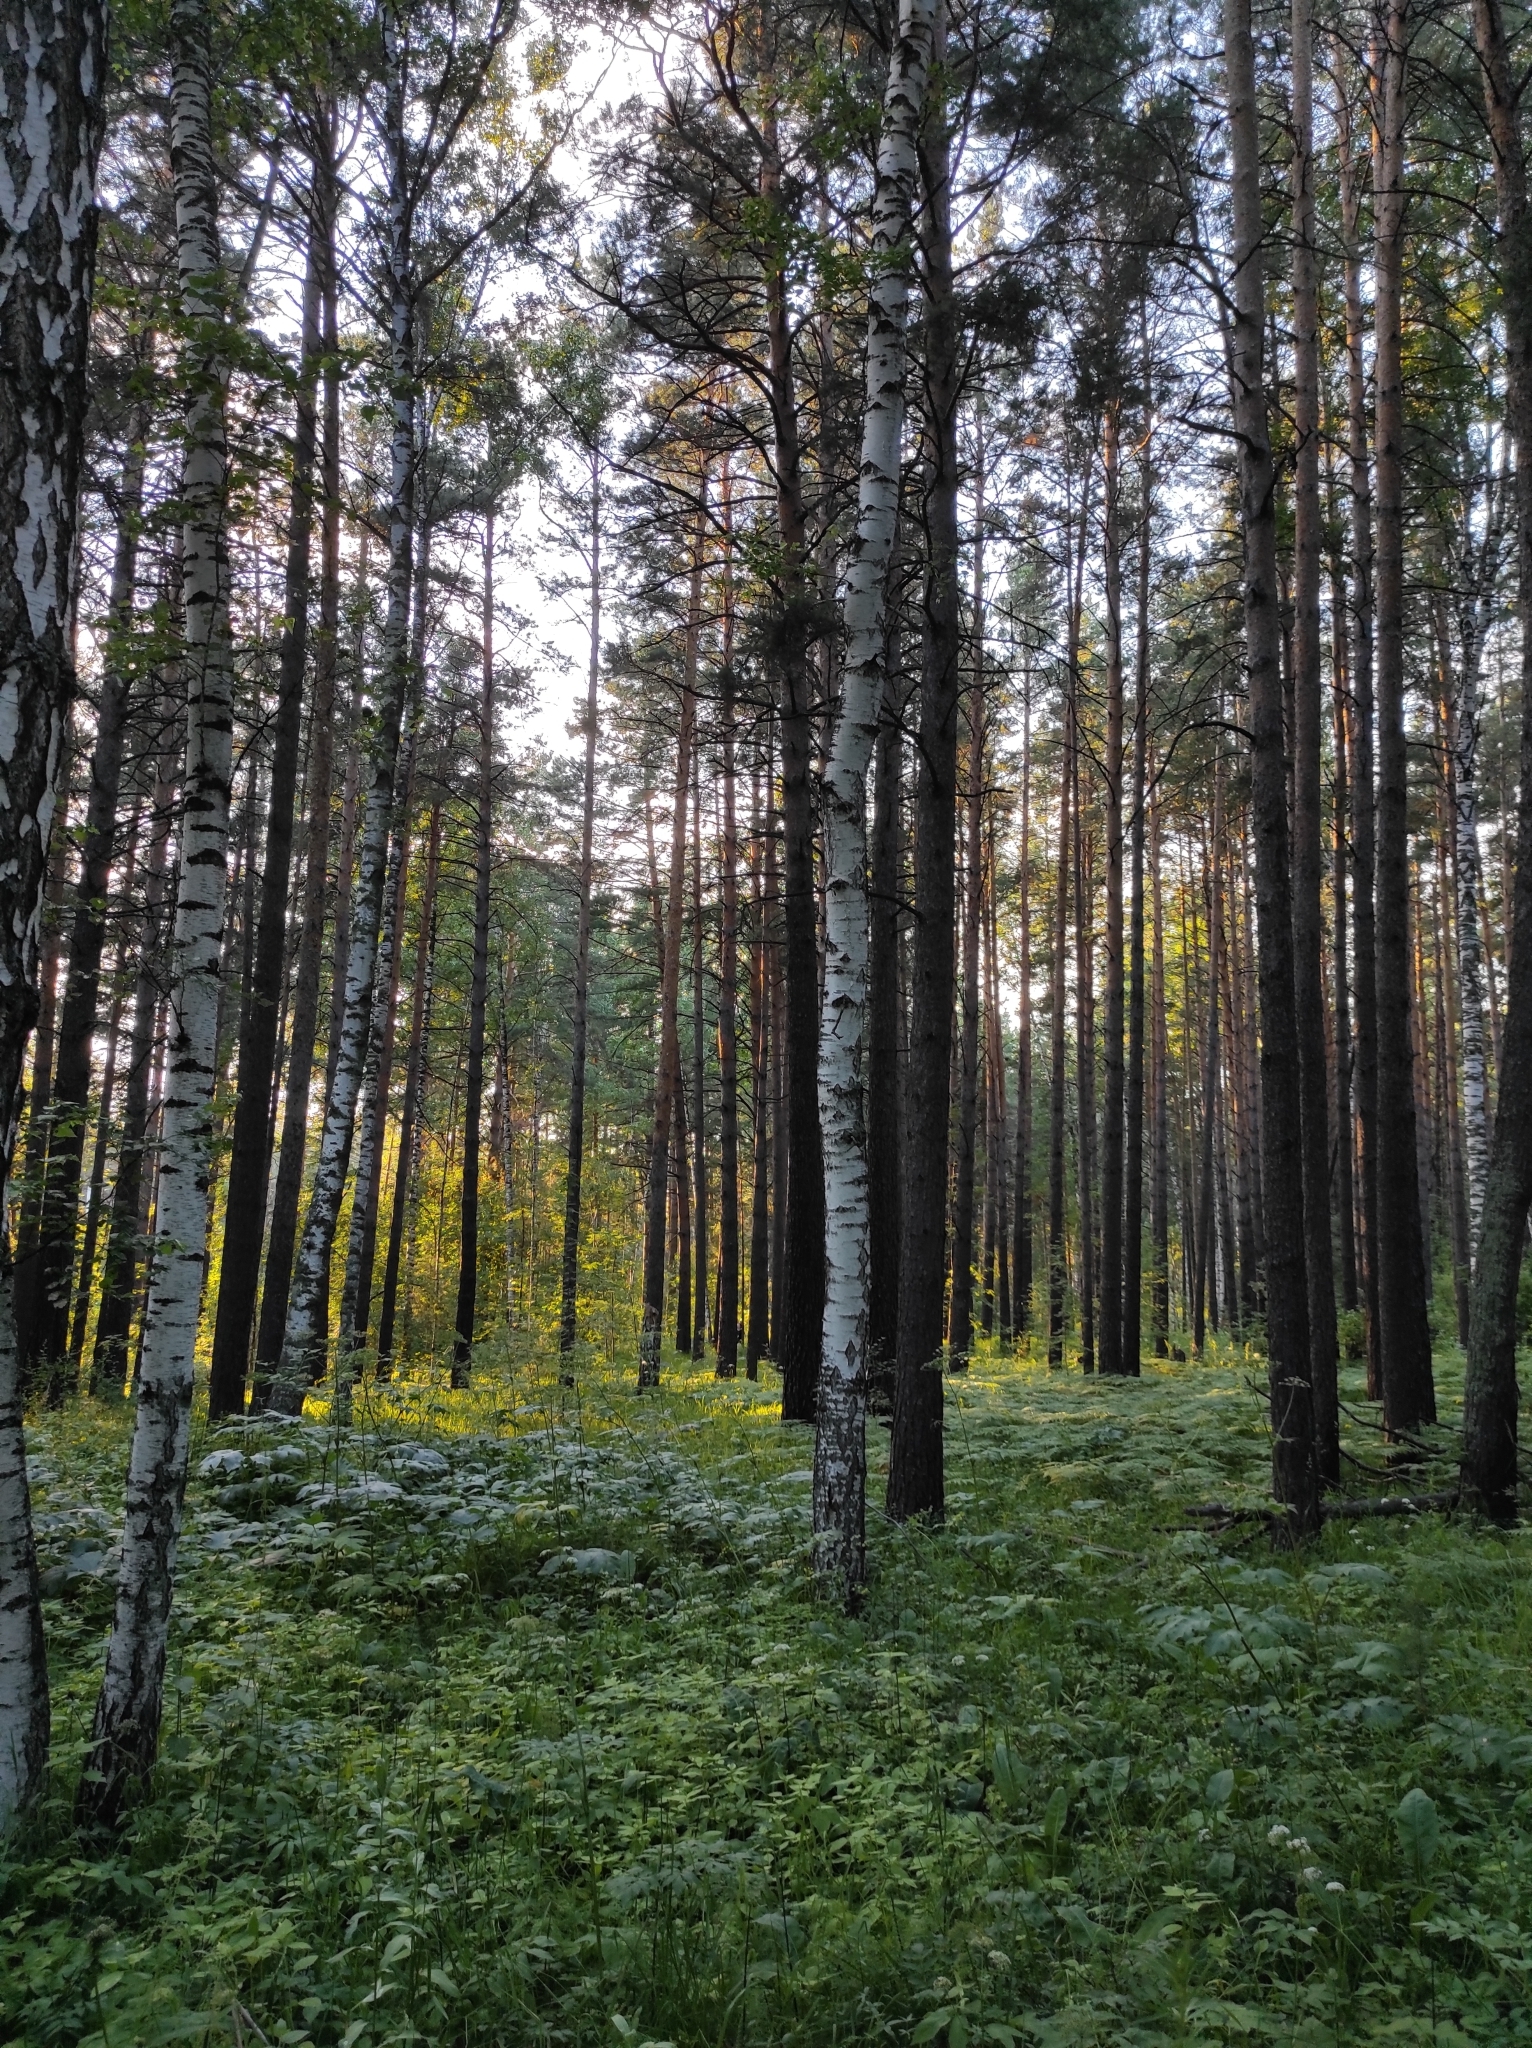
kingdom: Plantae
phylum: Tracheophyta
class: Pinopsida
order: Pinales
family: Pinaceae
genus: Pinus
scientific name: Pinus sylvestris
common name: Scots pine
